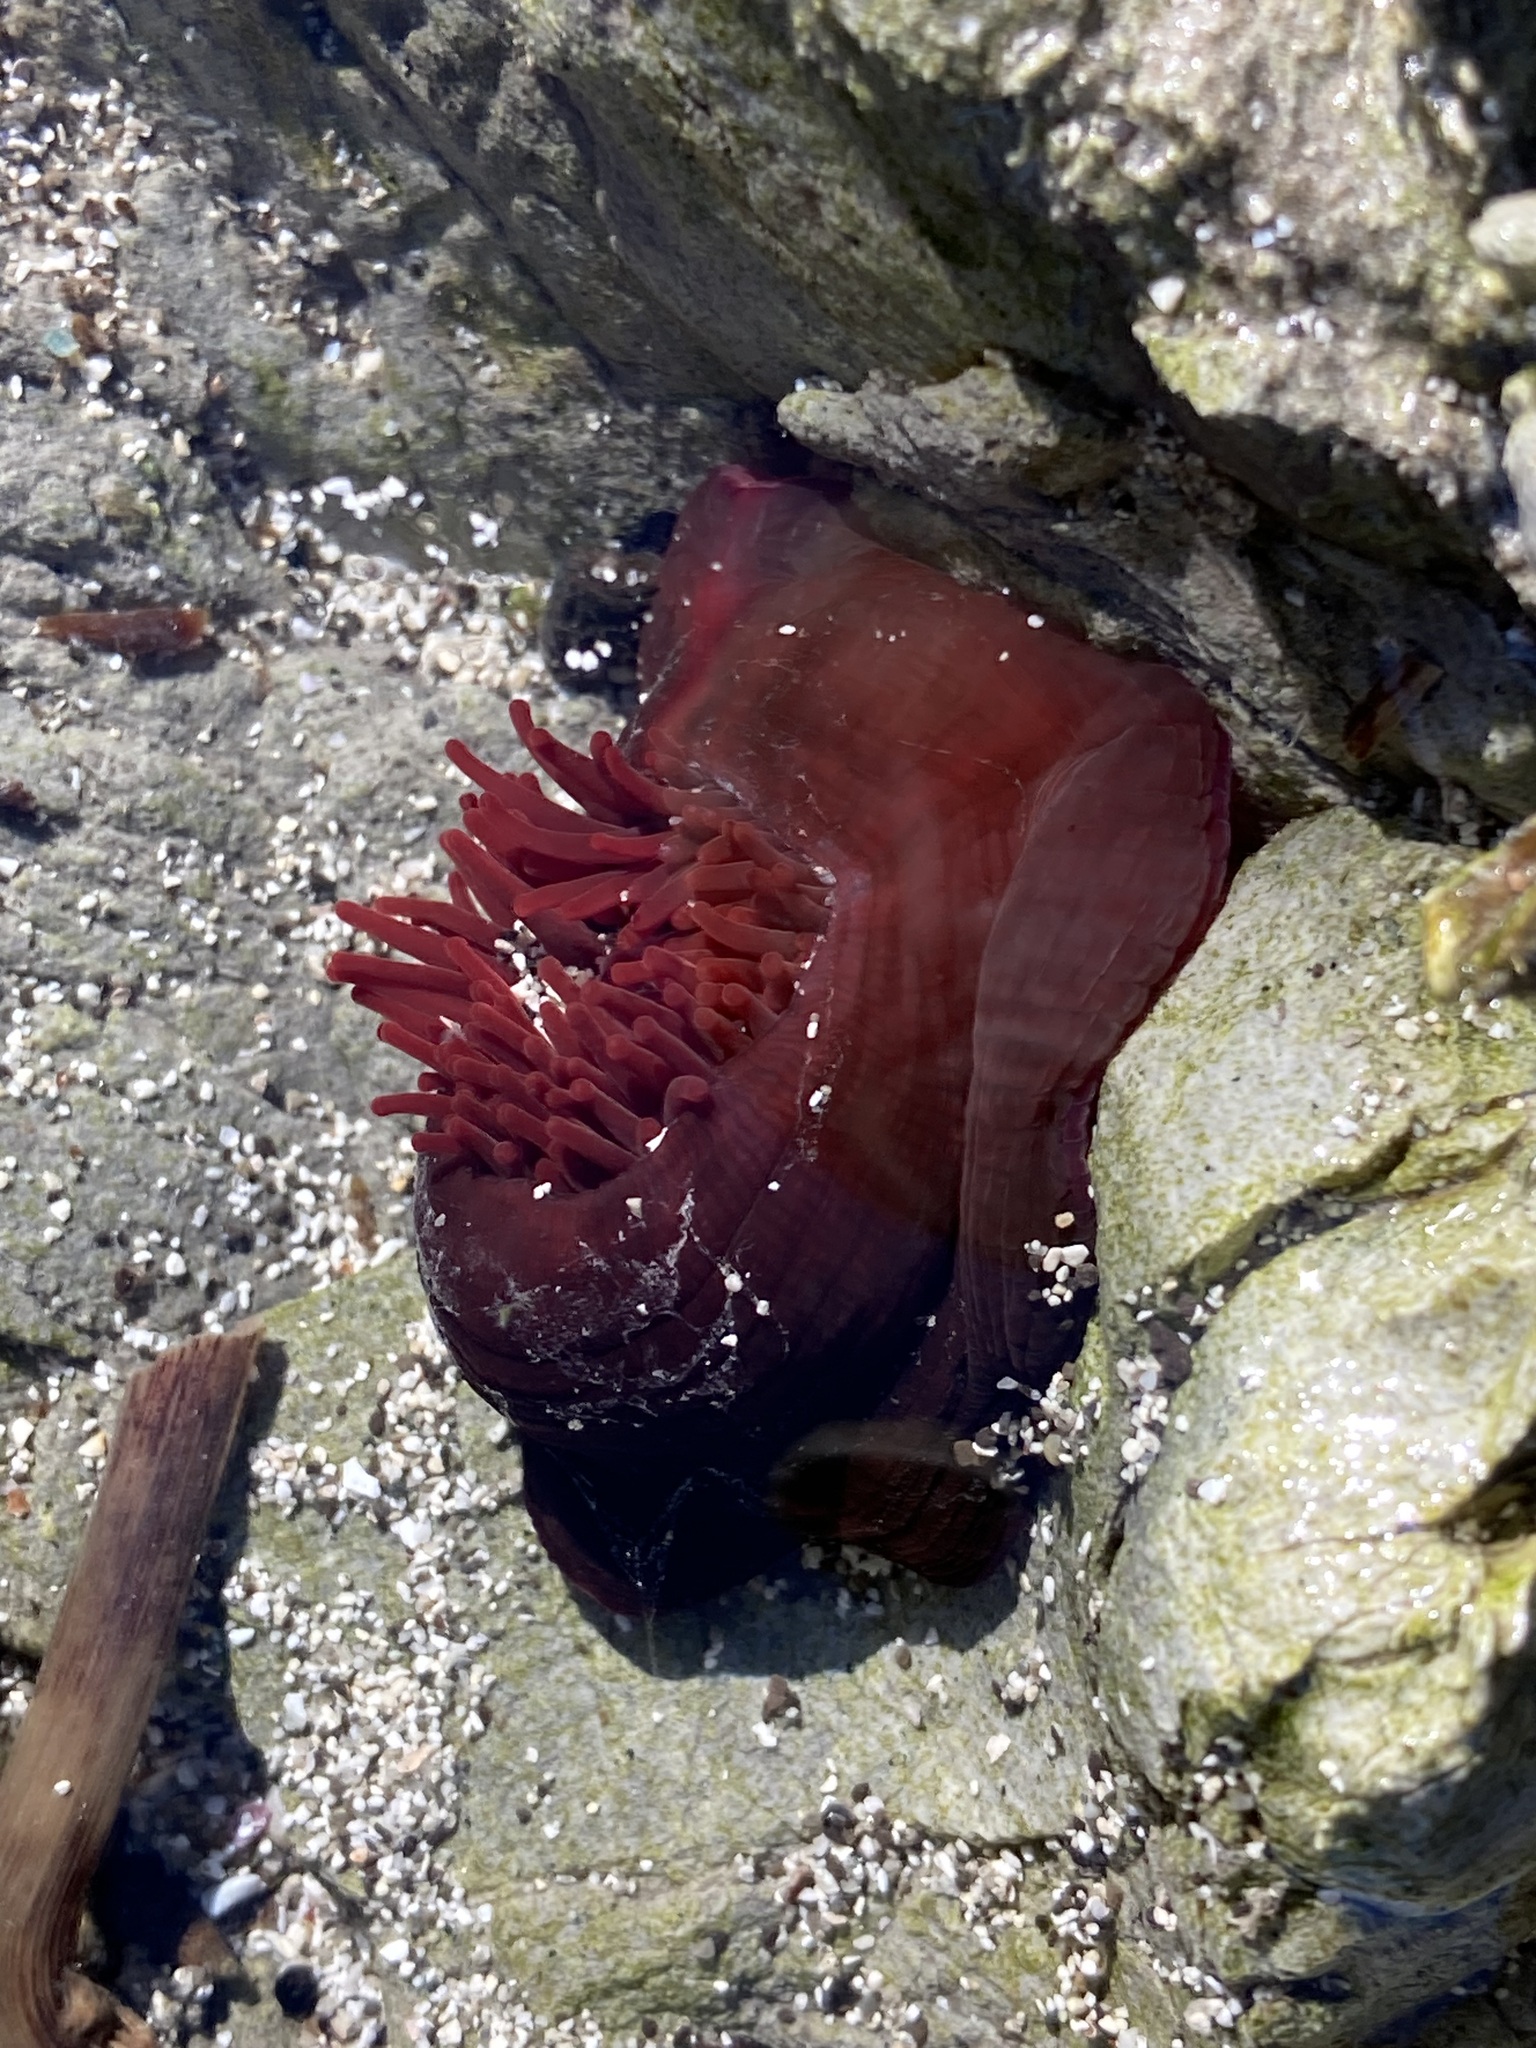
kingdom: Animalia
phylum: Cnidaria
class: Anthozoa
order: Actiniaria
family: Actiniidae
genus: Actinia
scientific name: Actinia tenebrosa
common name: Waratah anemone
